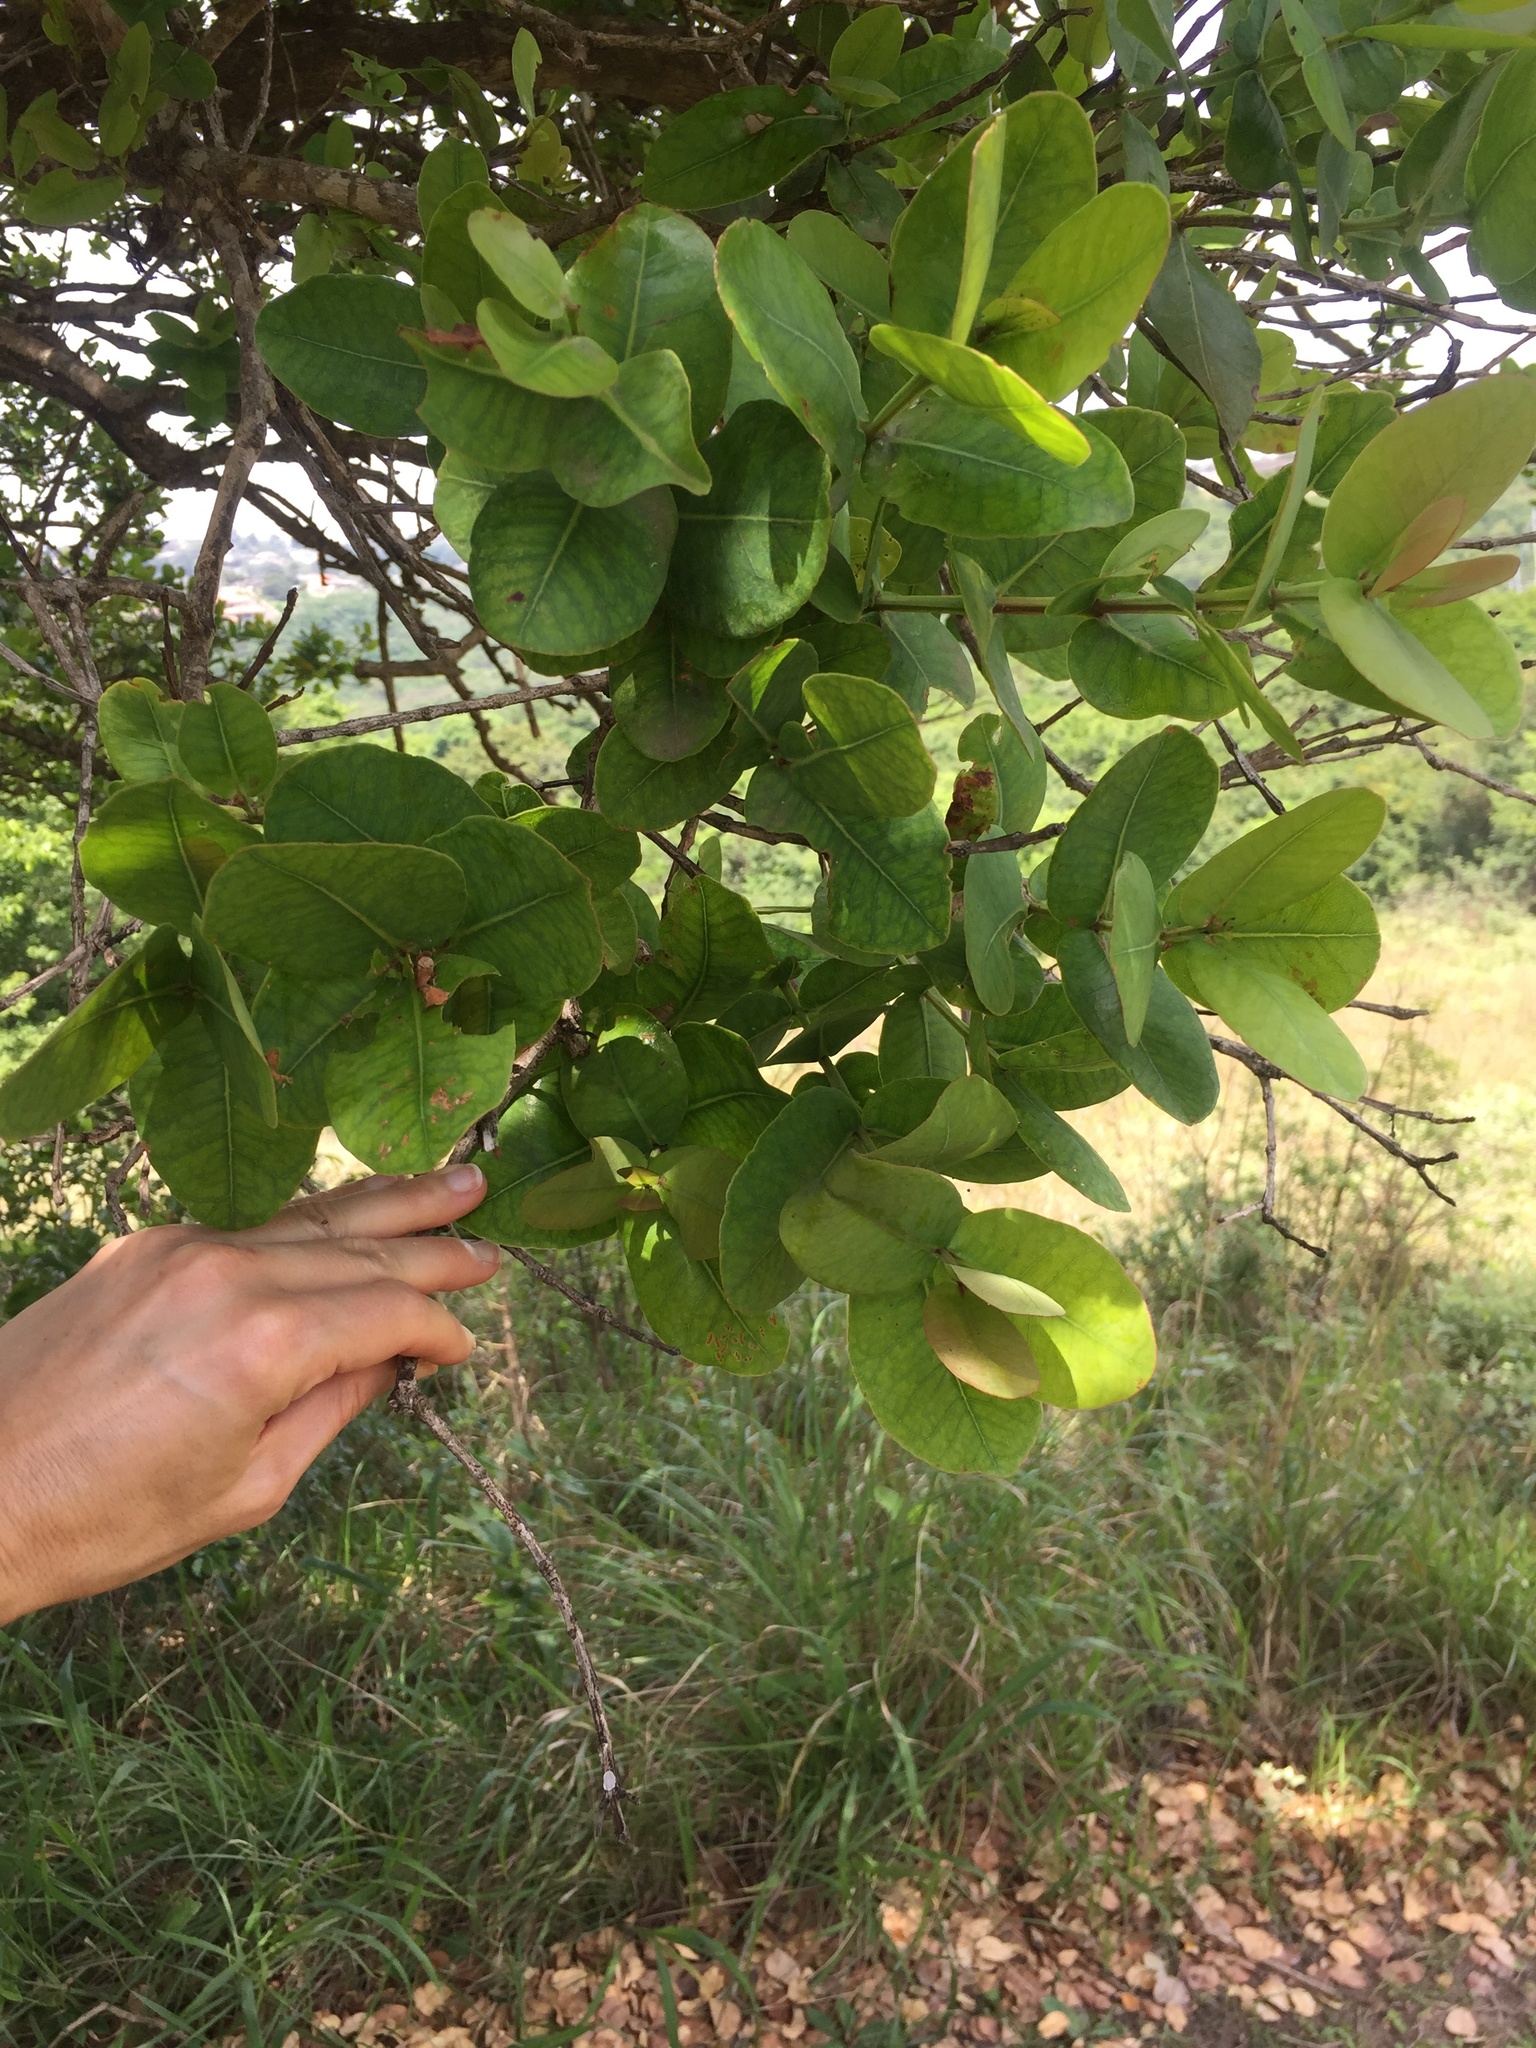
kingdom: Plantae
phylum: Tracheophyta
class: Magnoliopsida
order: Myrtales
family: Myrtaceae
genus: Syzygium
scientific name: Syzygium cordatum
